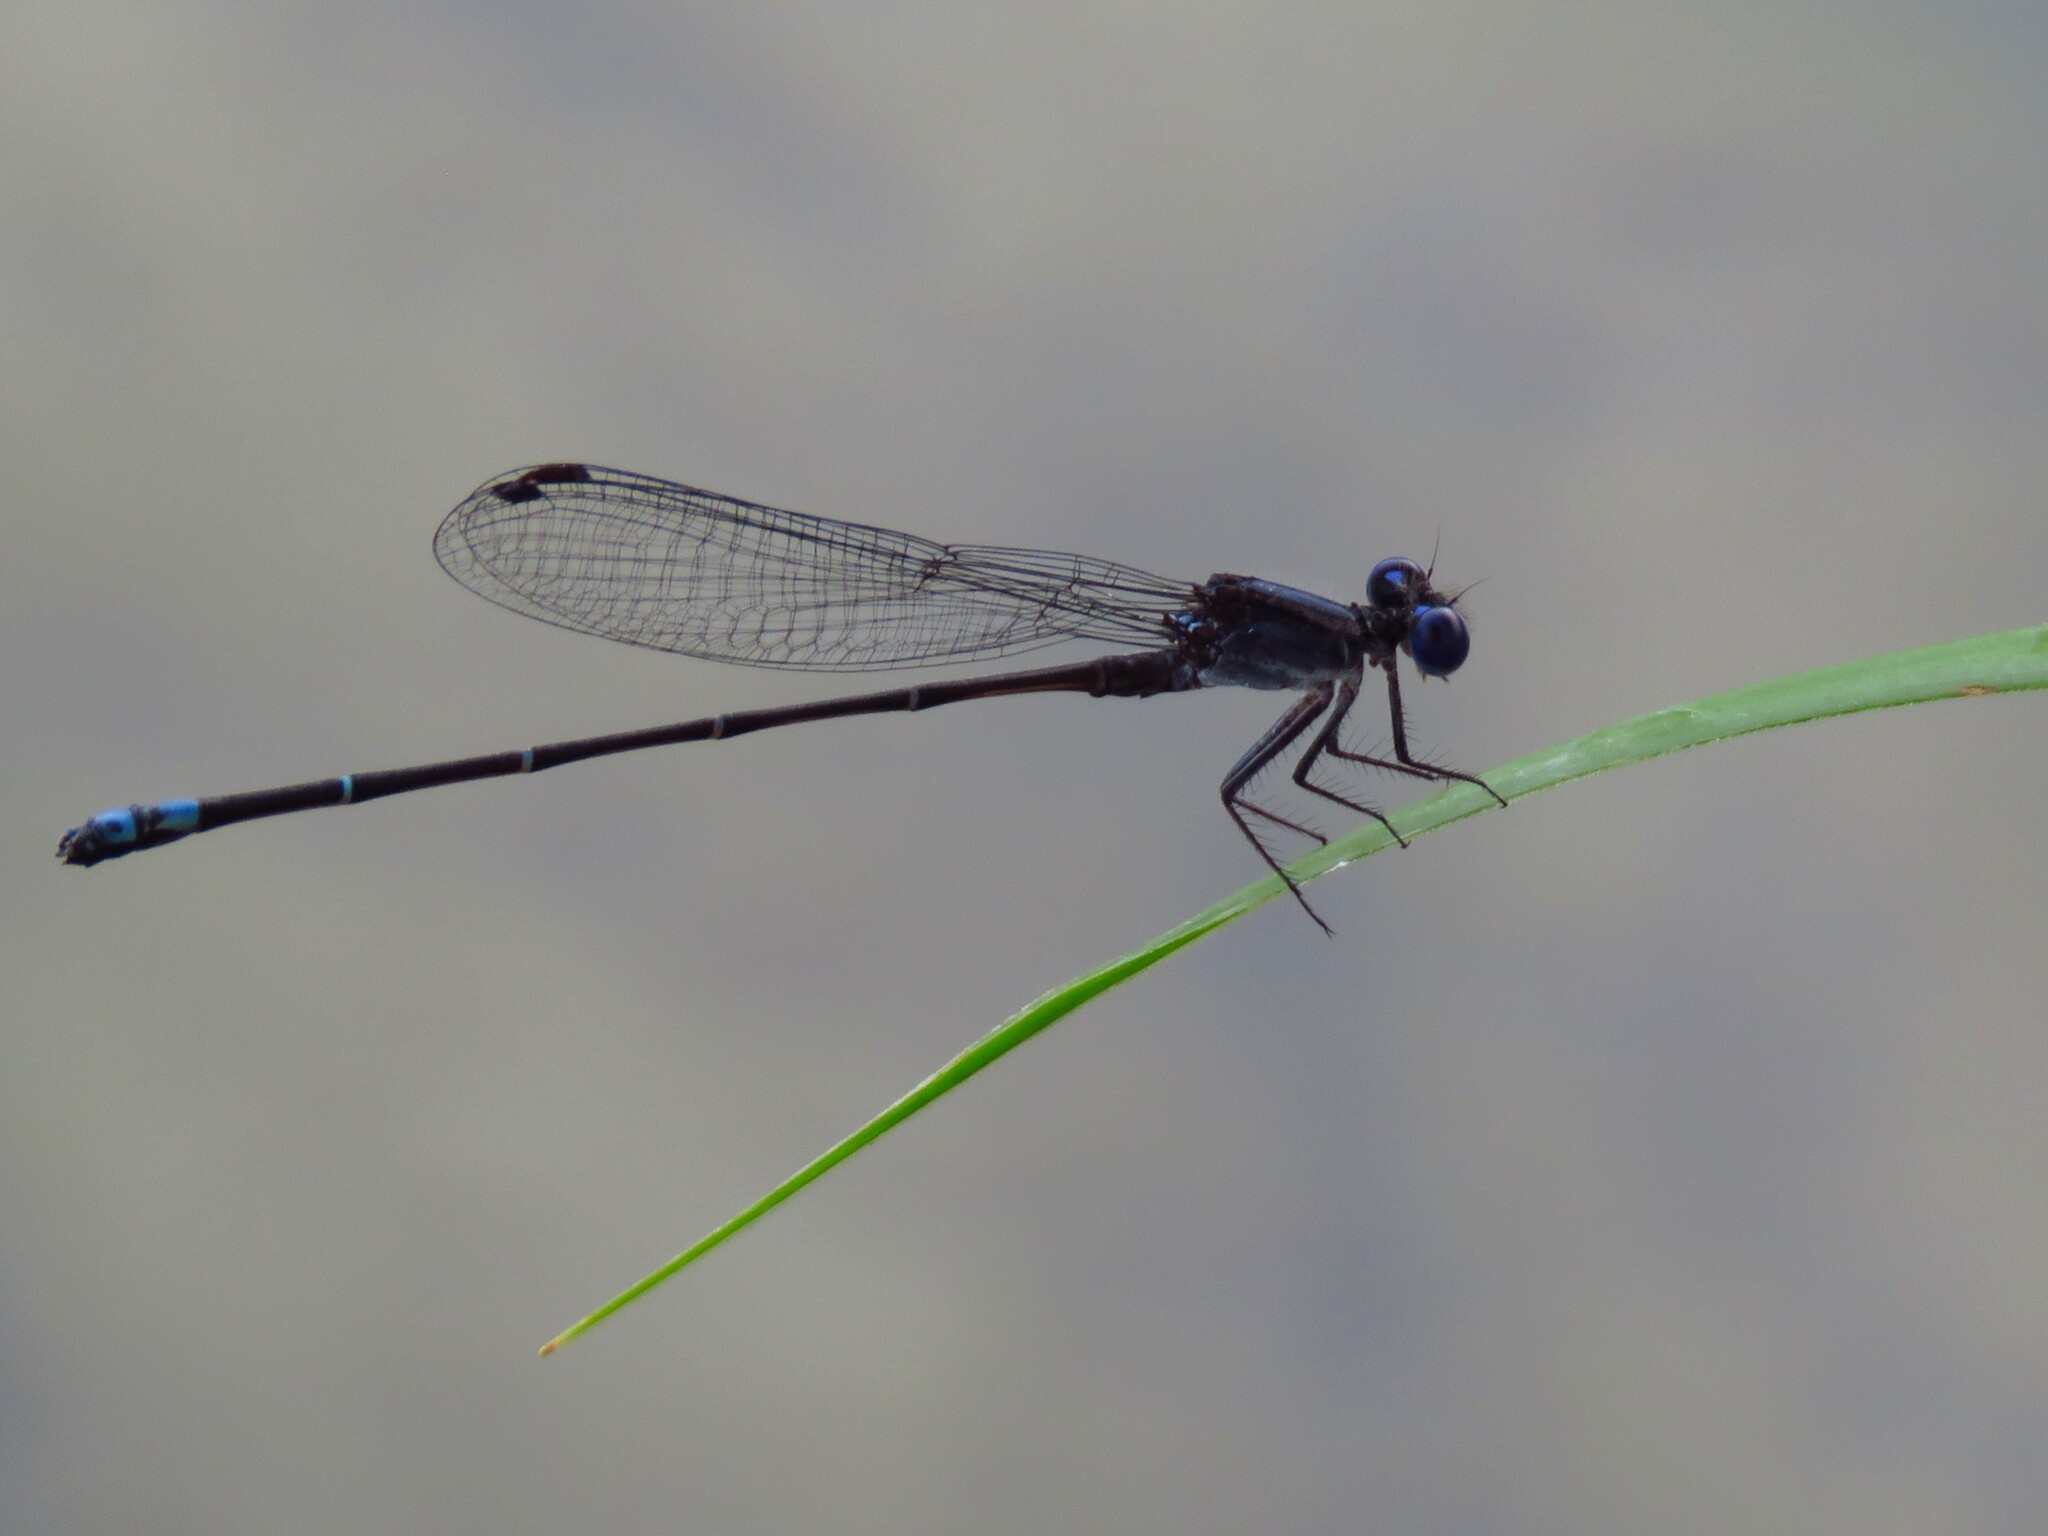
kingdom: Animalia
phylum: Arthropoda
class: Insecta
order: Odonata
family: Coenagrionidae
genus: Argia
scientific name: Argia translata
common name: Dusky dancer
